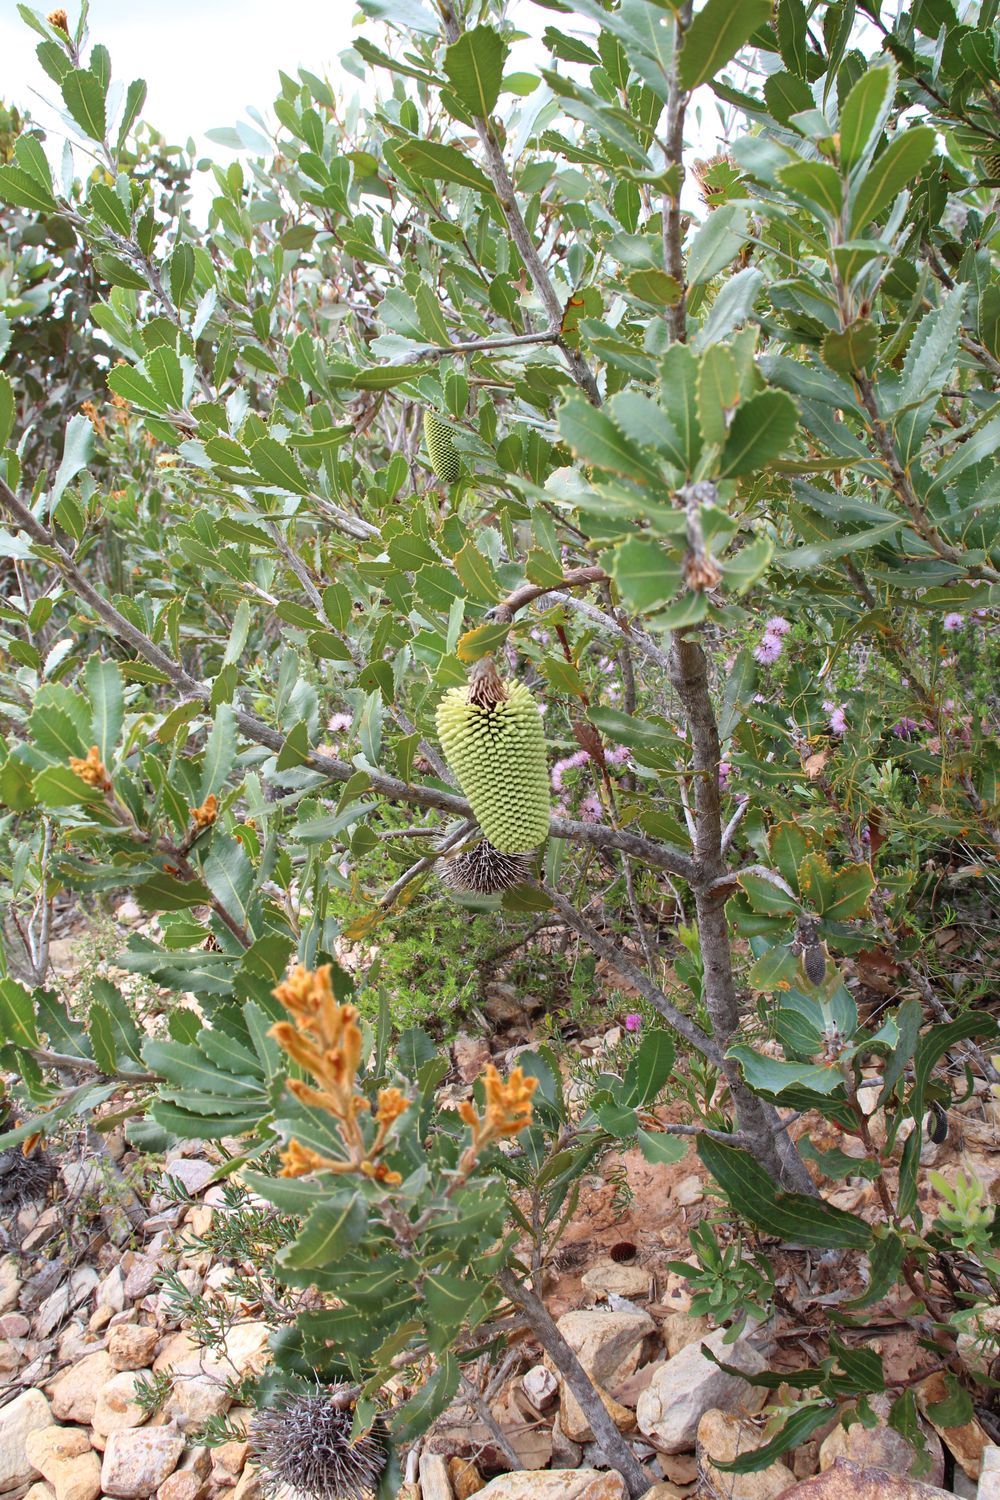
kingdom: Plantae
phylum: Tracheophyta
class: Magnoliopsida
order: Proteales
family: Proteaceae
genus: Banksia
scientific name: Banksia lemanniana
